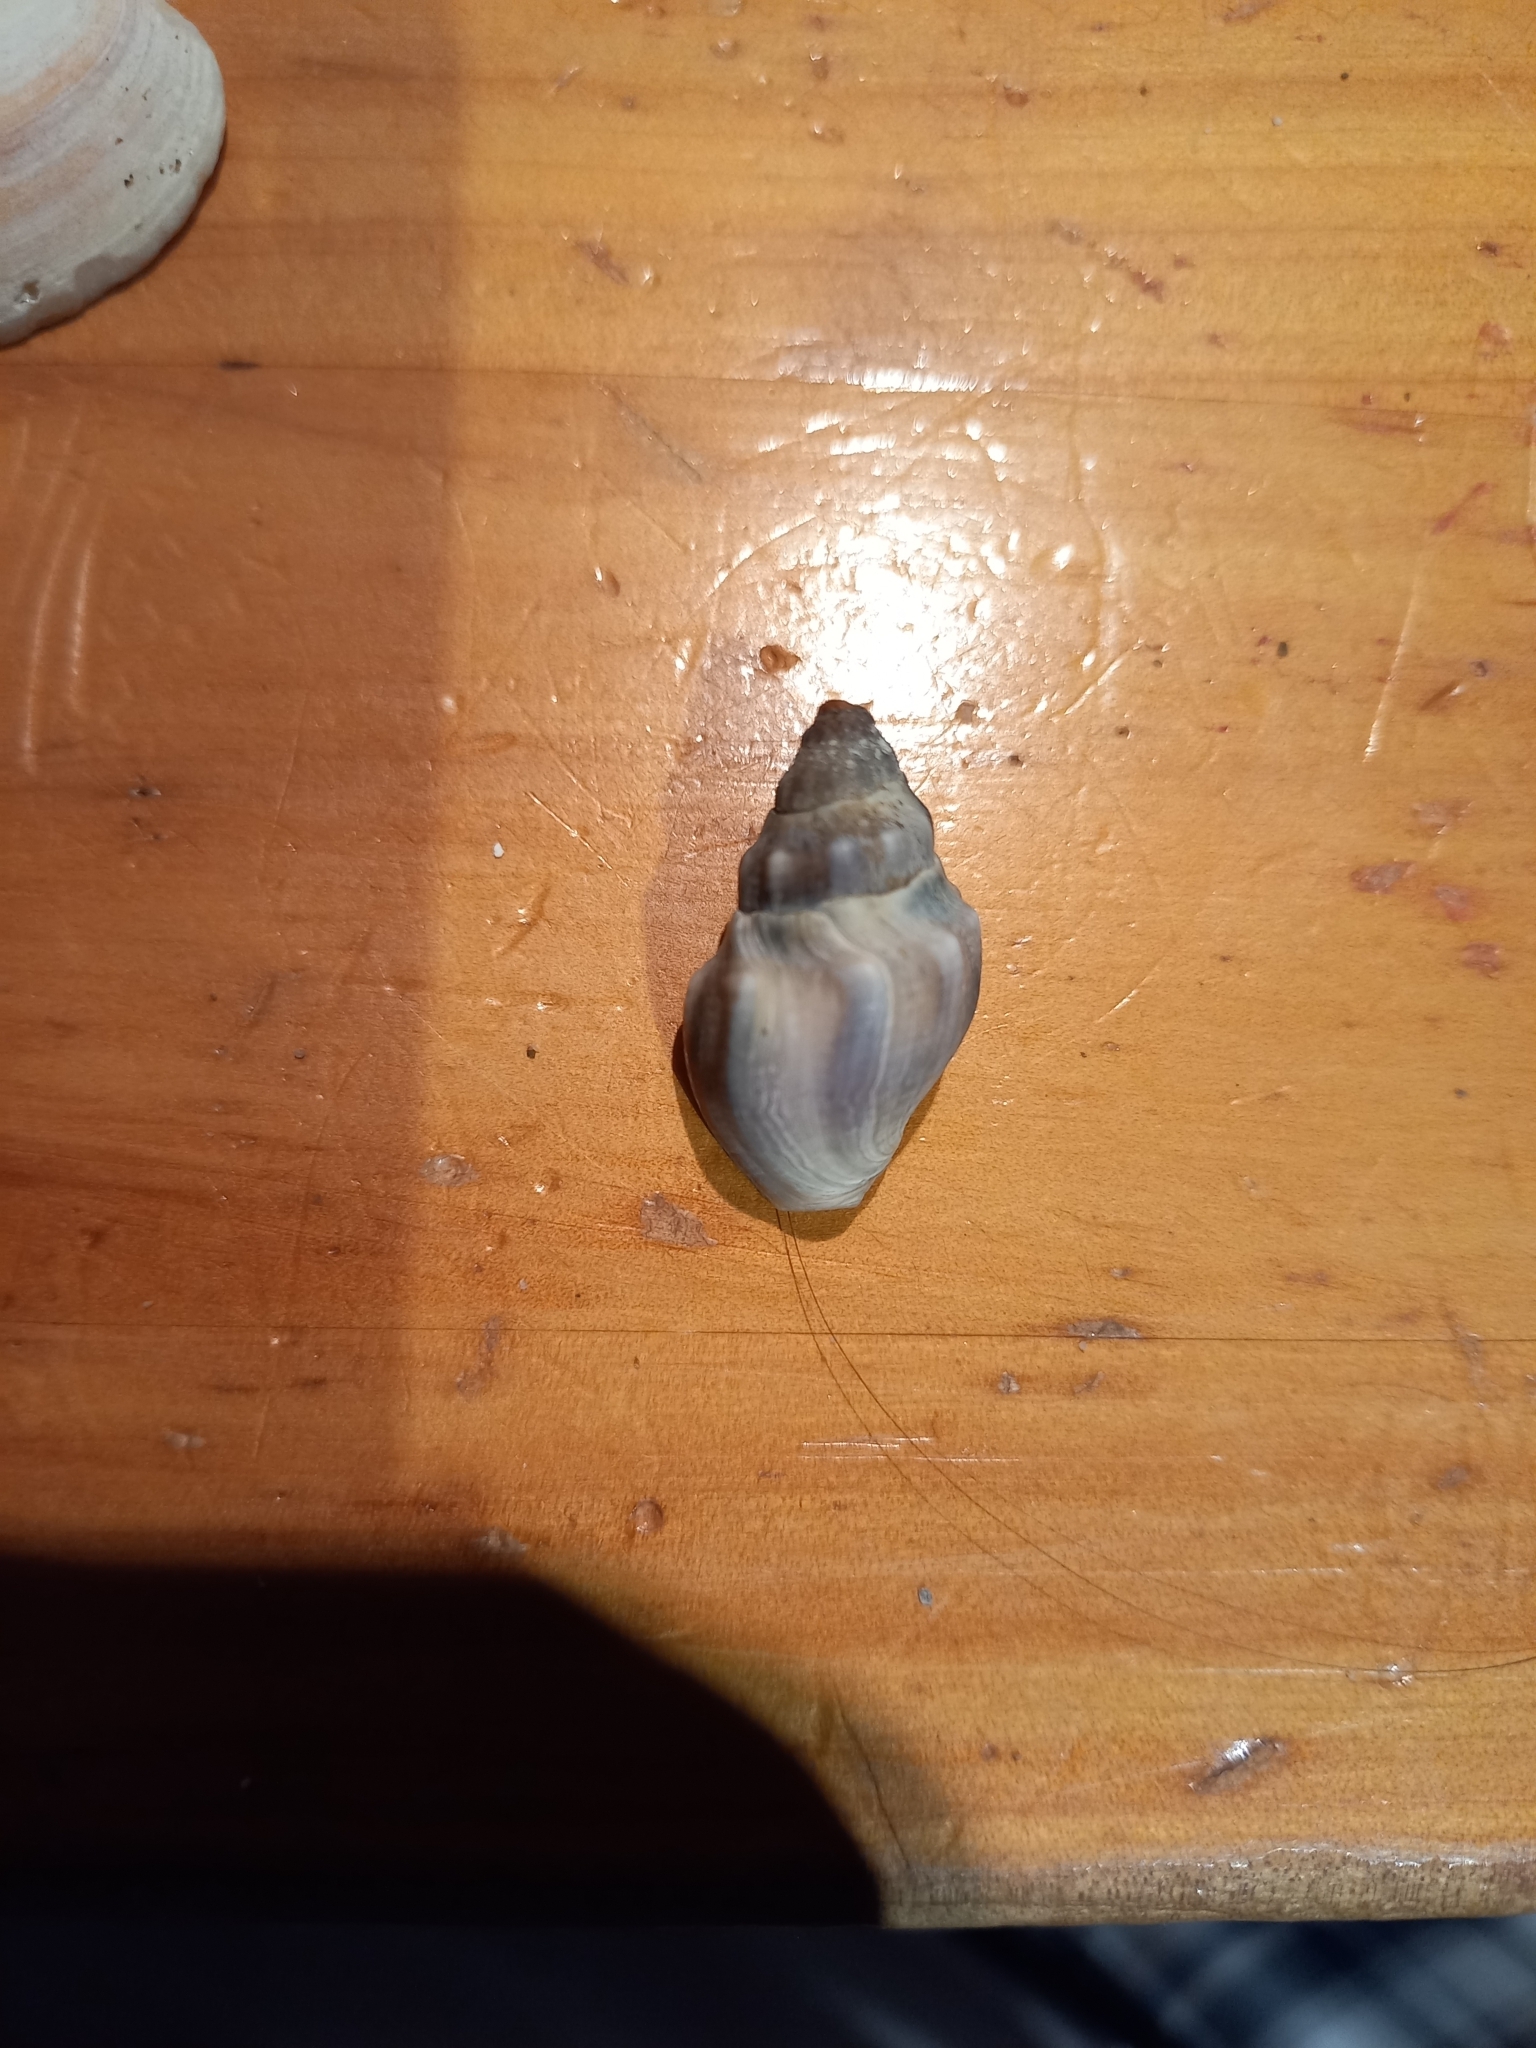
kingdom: Animalia
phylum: Mollusca
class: Gastropoda
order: Neogastropoda
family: Cominellidae
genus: Cominella
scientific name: Cominella glandiformis
